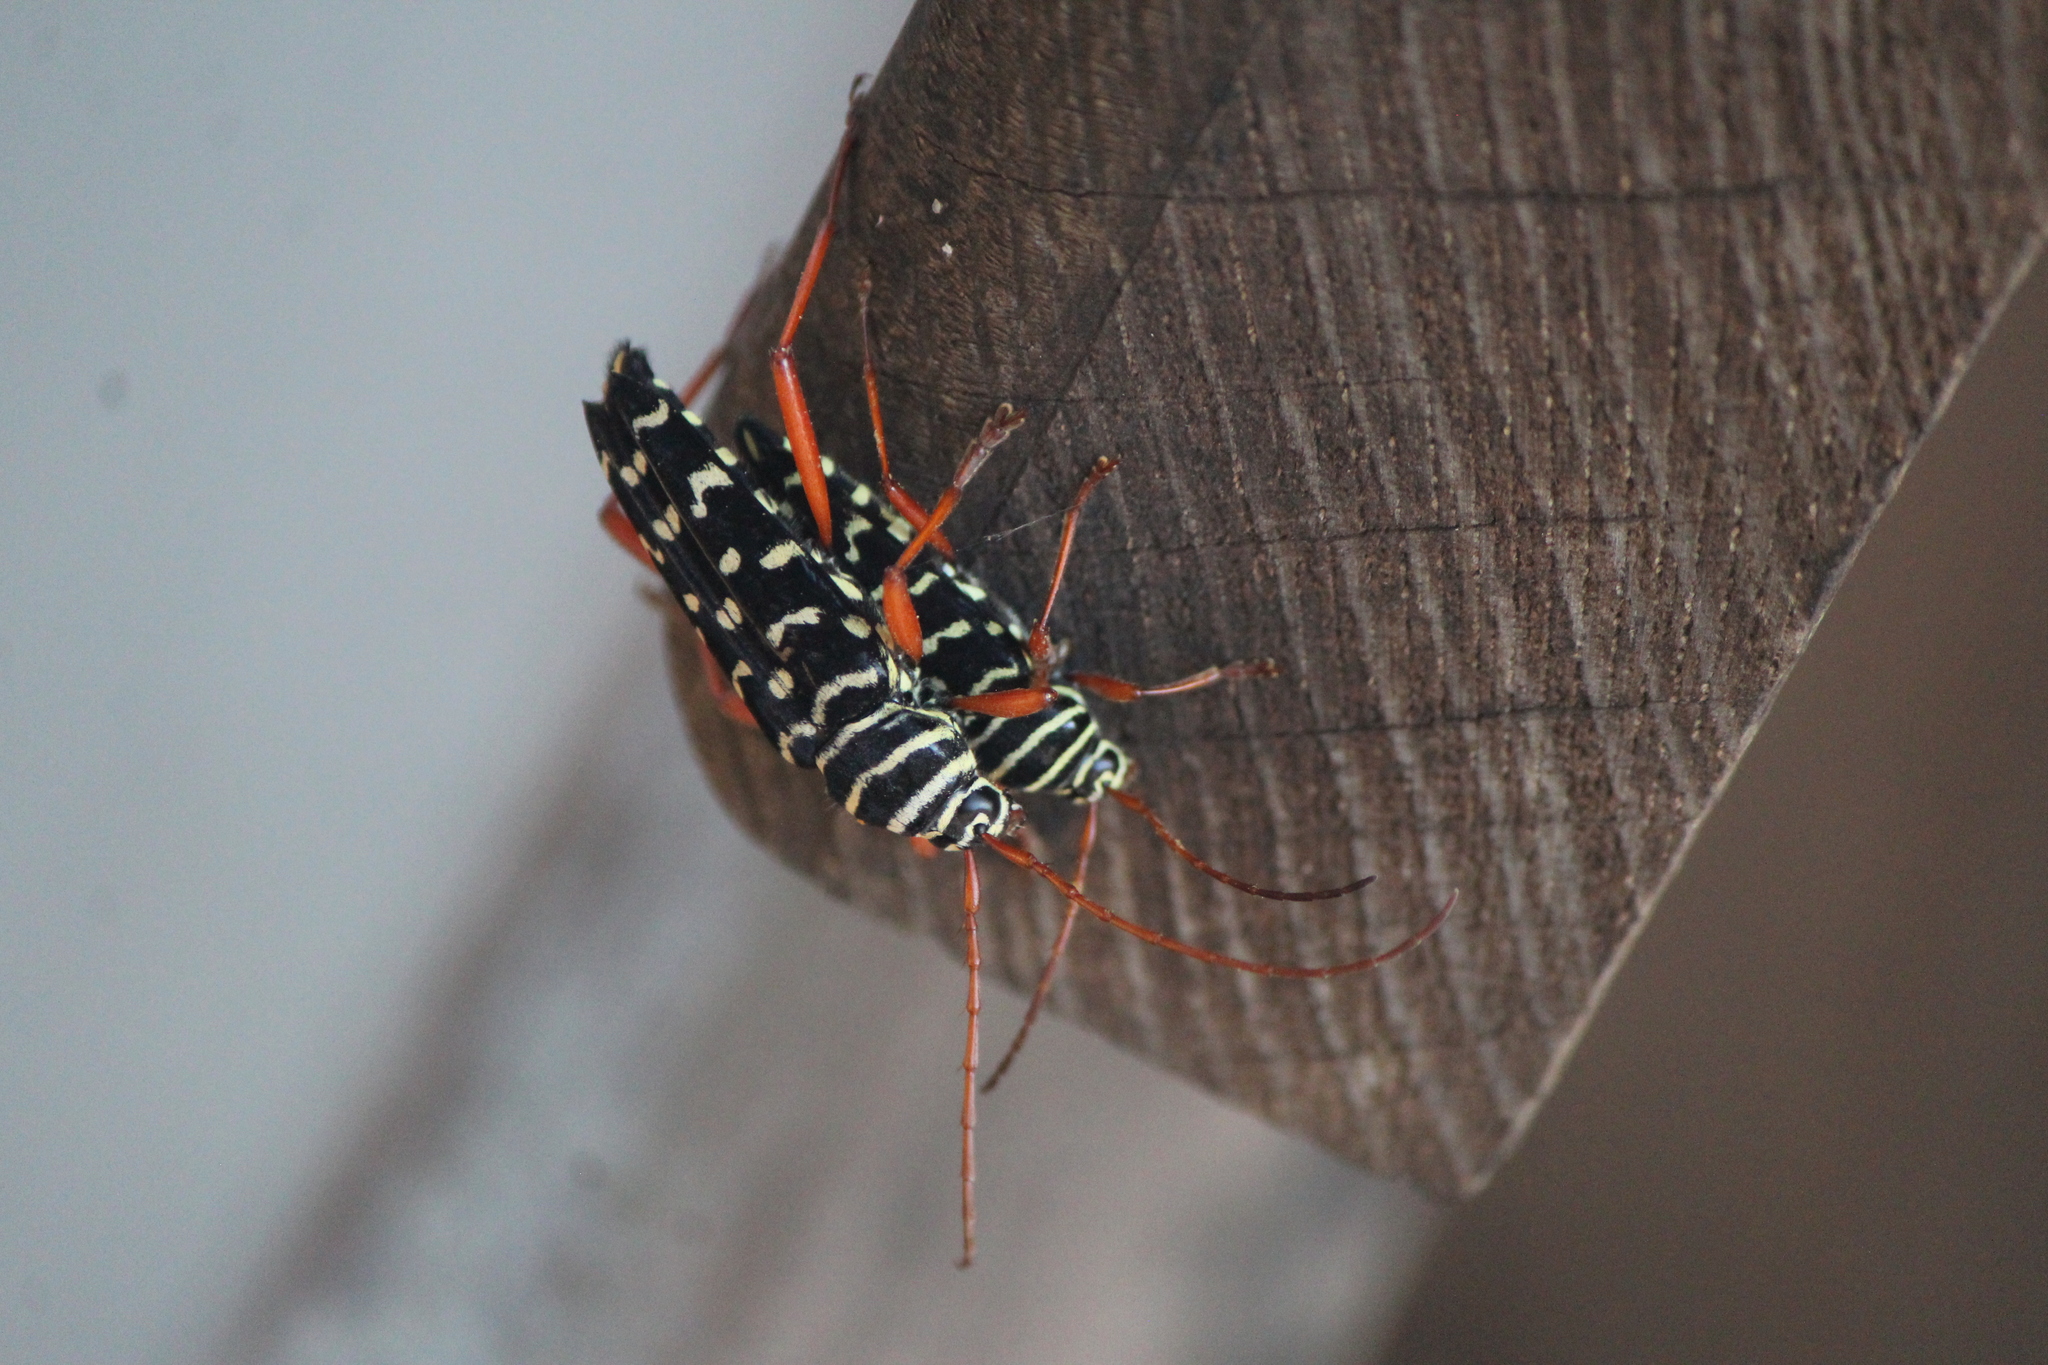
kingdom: Animalia
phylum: Arthropoda
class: Insecta
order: Coleoptera
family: Cerambycidae
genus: Placosternus
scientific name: Placosternus erythropus
